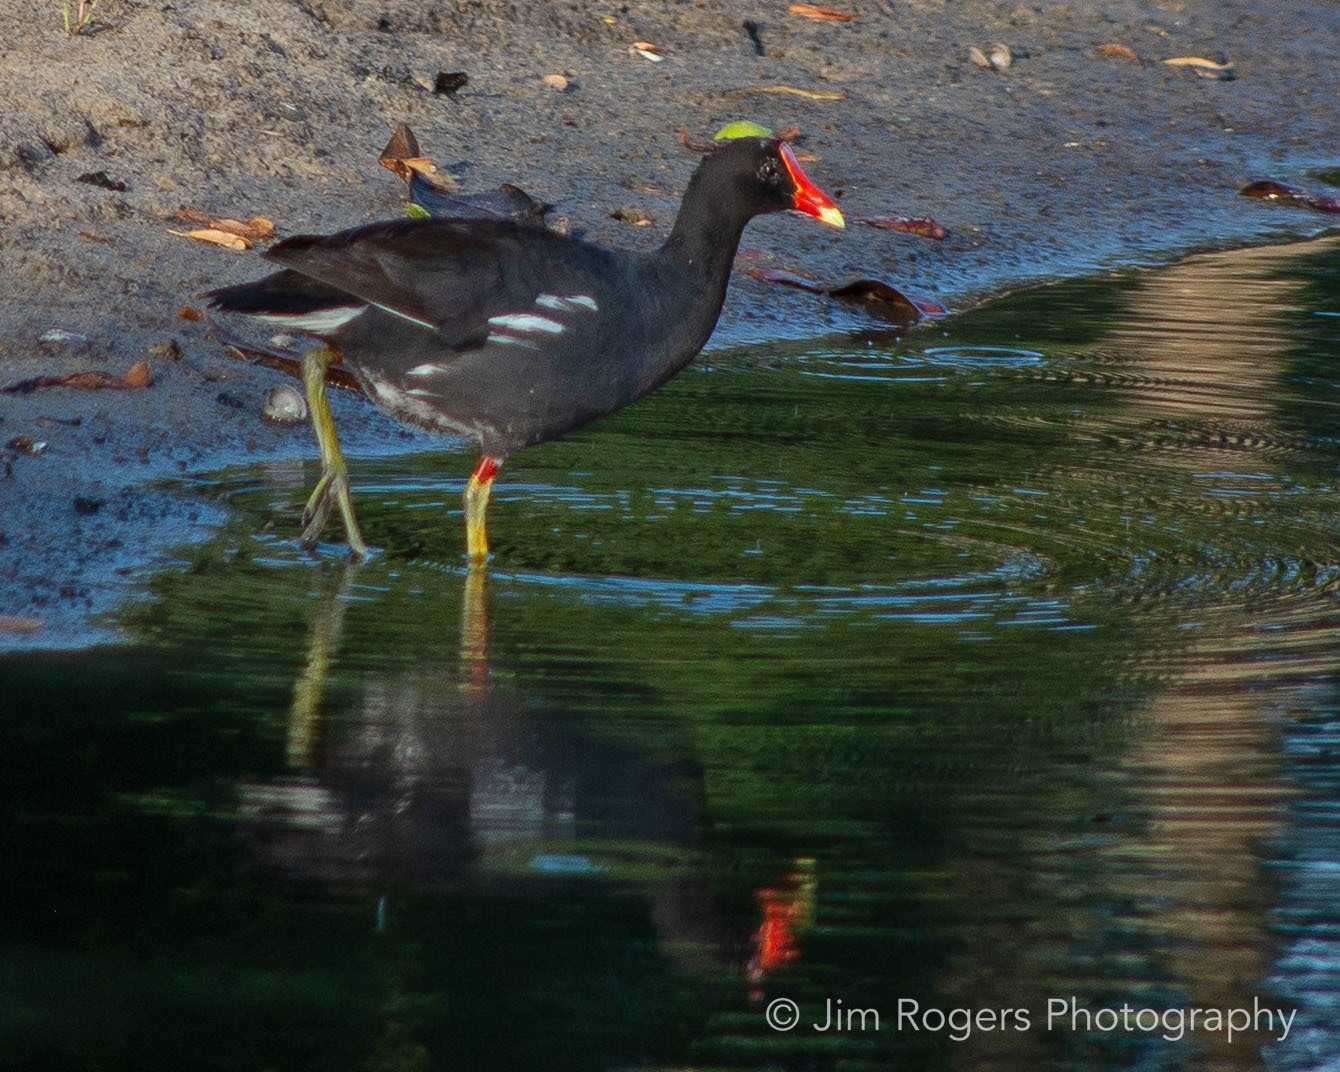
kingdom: Animalia
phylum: Chordata
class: Aves
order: Gruiformes
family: Rallidae
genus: Gallinula
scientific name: Gallinula chloropus
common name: Common moorhen
